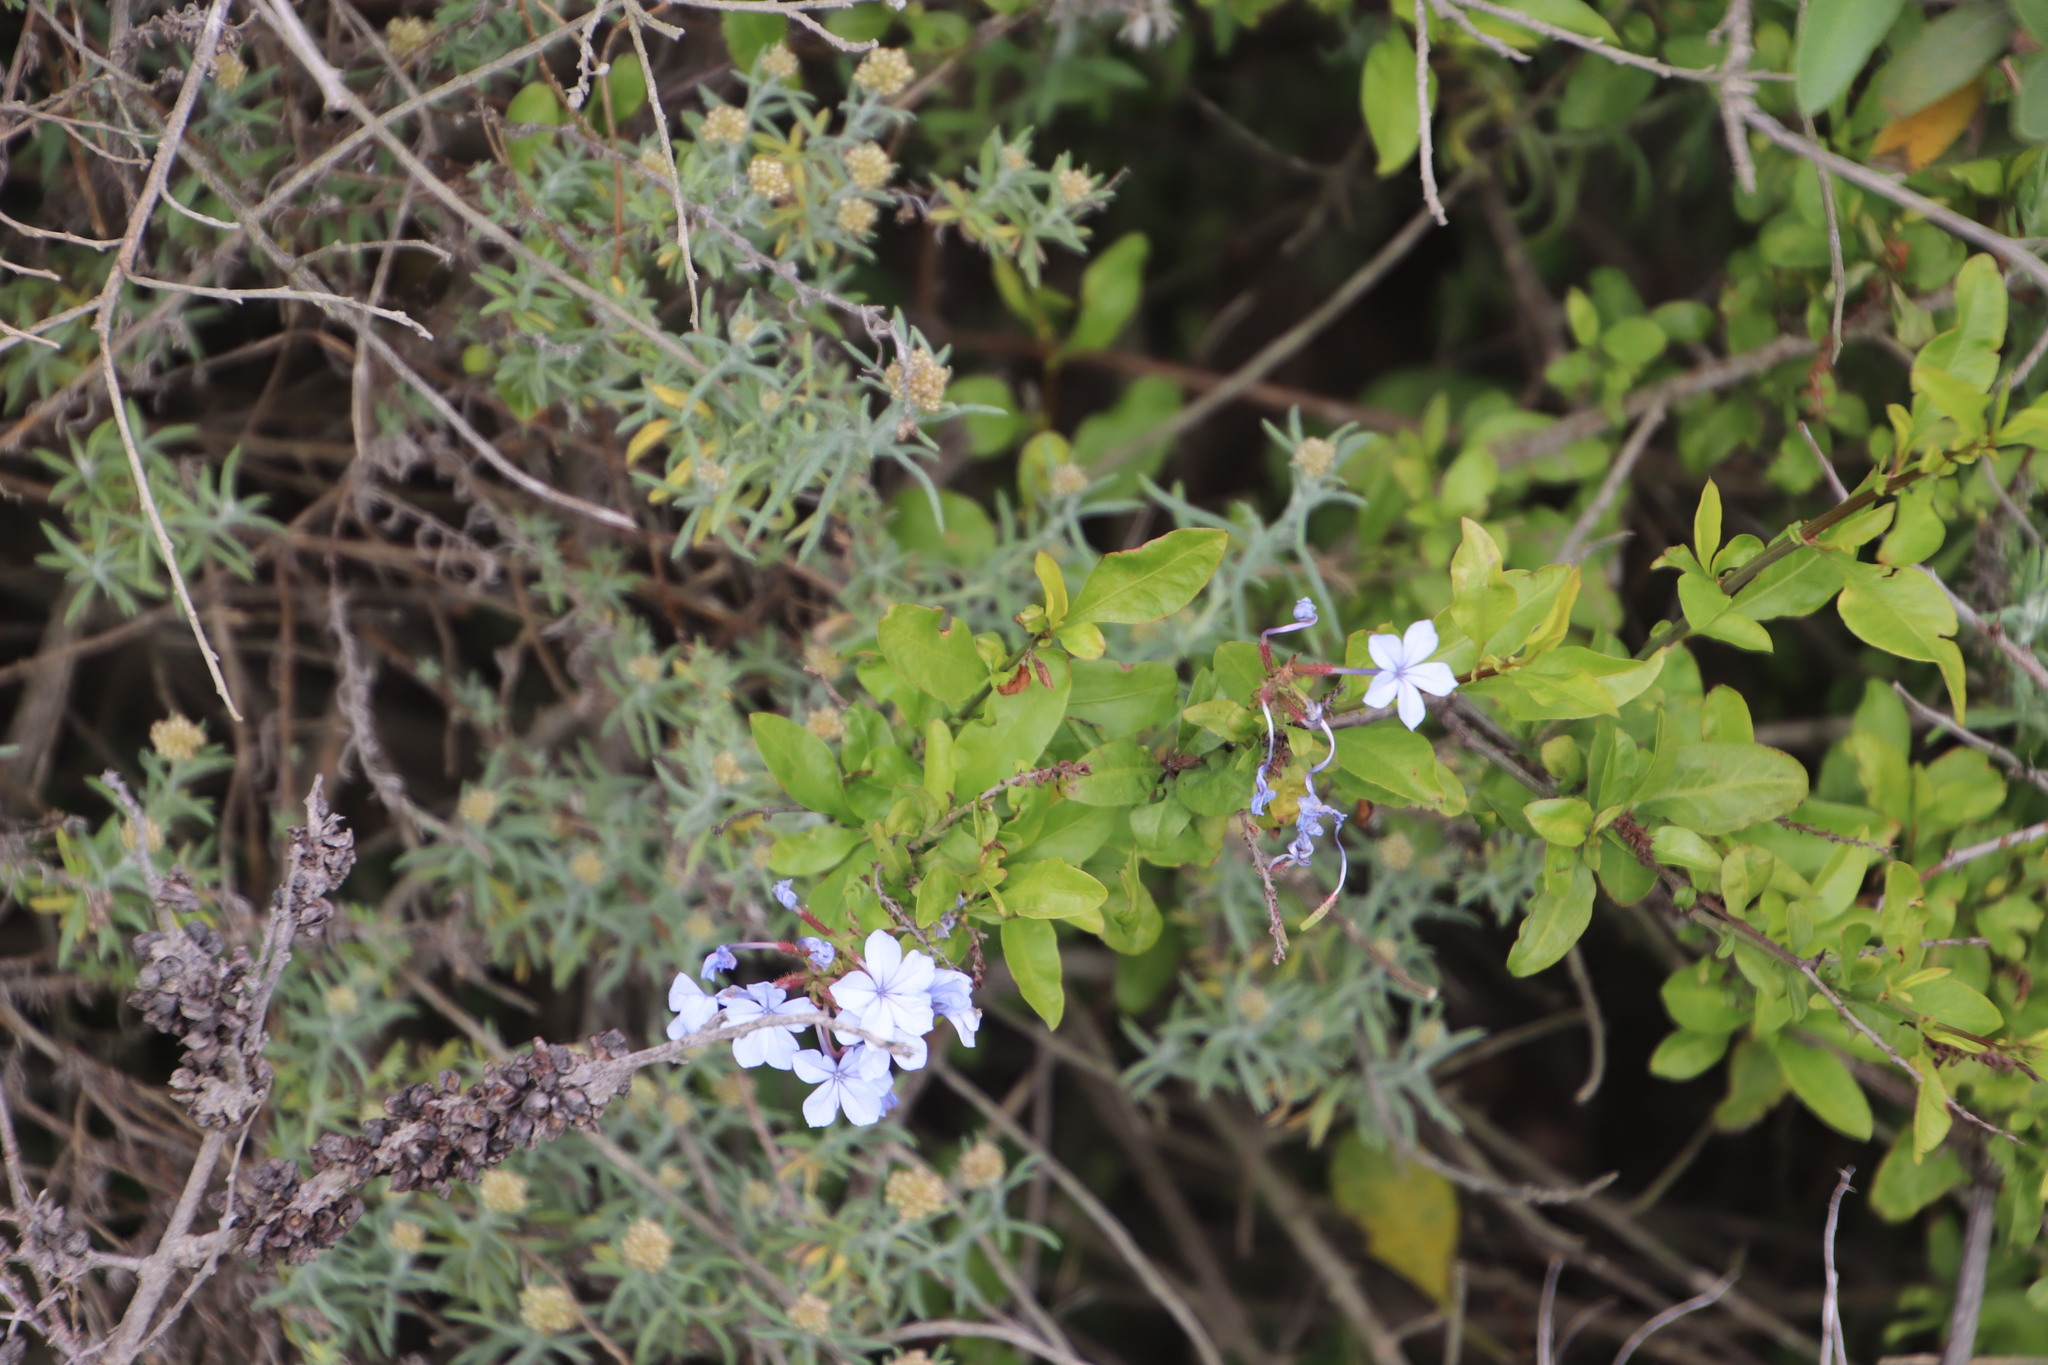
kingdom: Plantae
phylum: Tracheophyta
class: Magnoliopsida
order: Caryophyllales
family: Plumbaginaceae
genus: Plumbago
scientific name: Plumbago auriculata
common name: Cape leadwort
